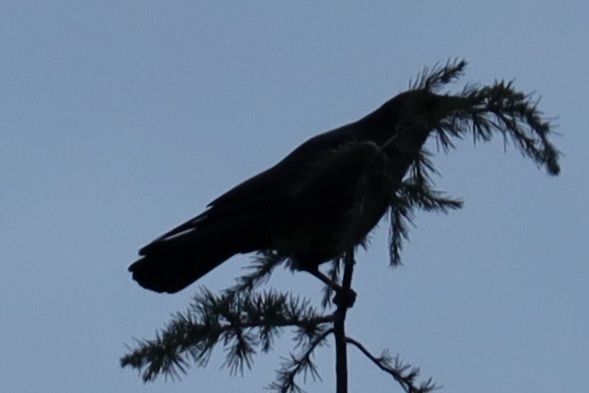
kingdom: Animalia
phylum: Chordata
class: Aves
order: Passeriformes
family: Corvidae
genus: Corvus
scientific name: Corvus brachyrhynchos
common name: American crow
